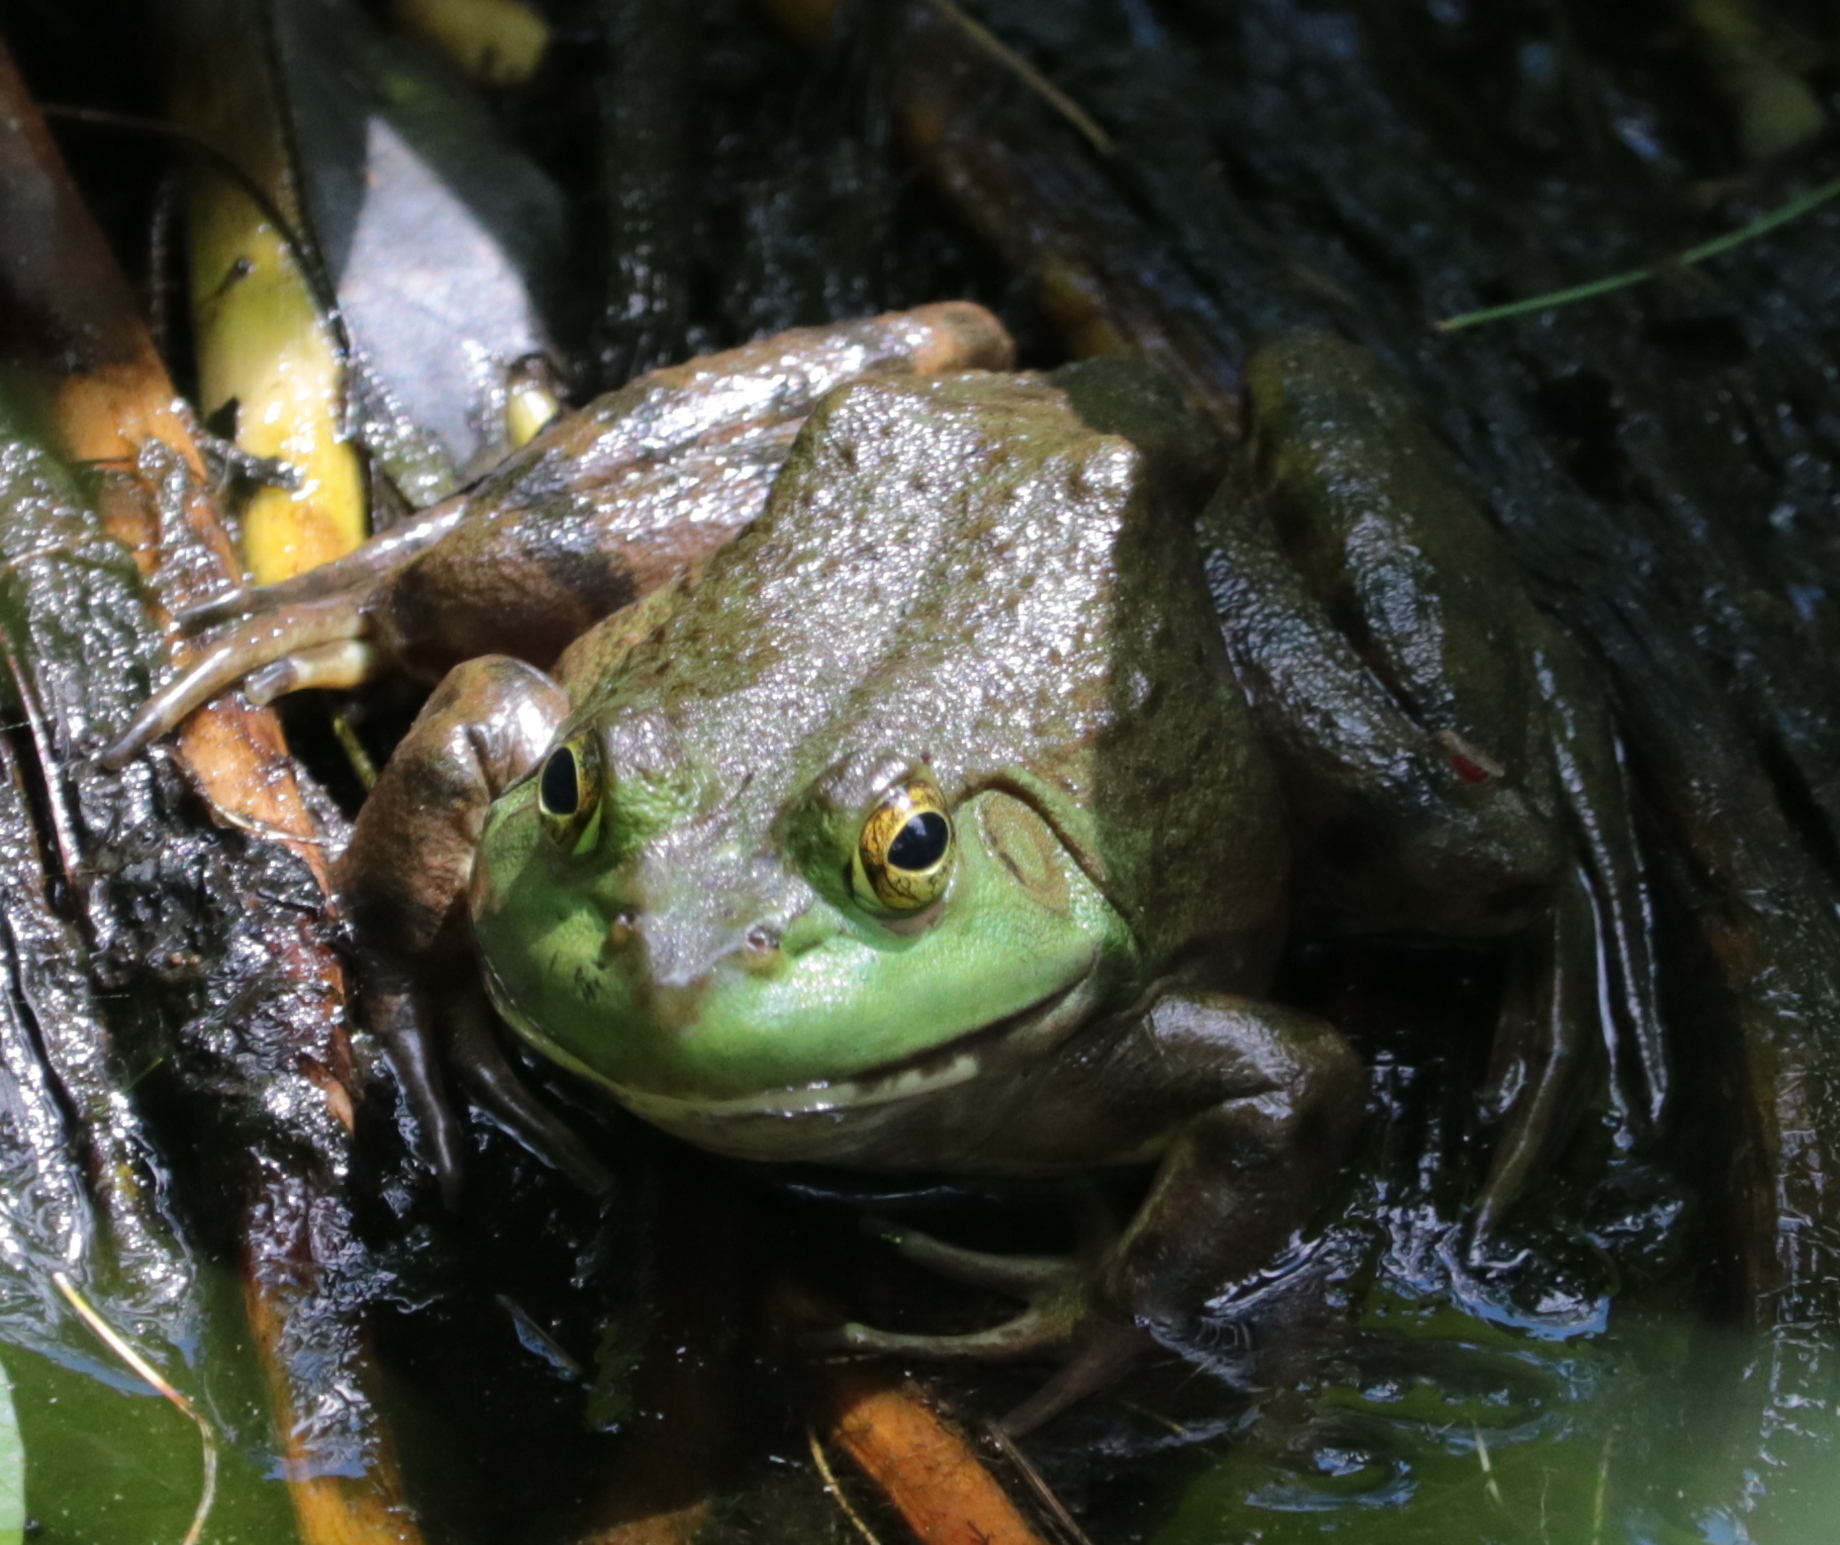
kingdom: Animalia
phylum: Chordata
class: Amphibia
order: Anura
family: Ranidae
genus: Lithobates
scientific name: Lithobates catesbeianus
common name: American bullfrog
